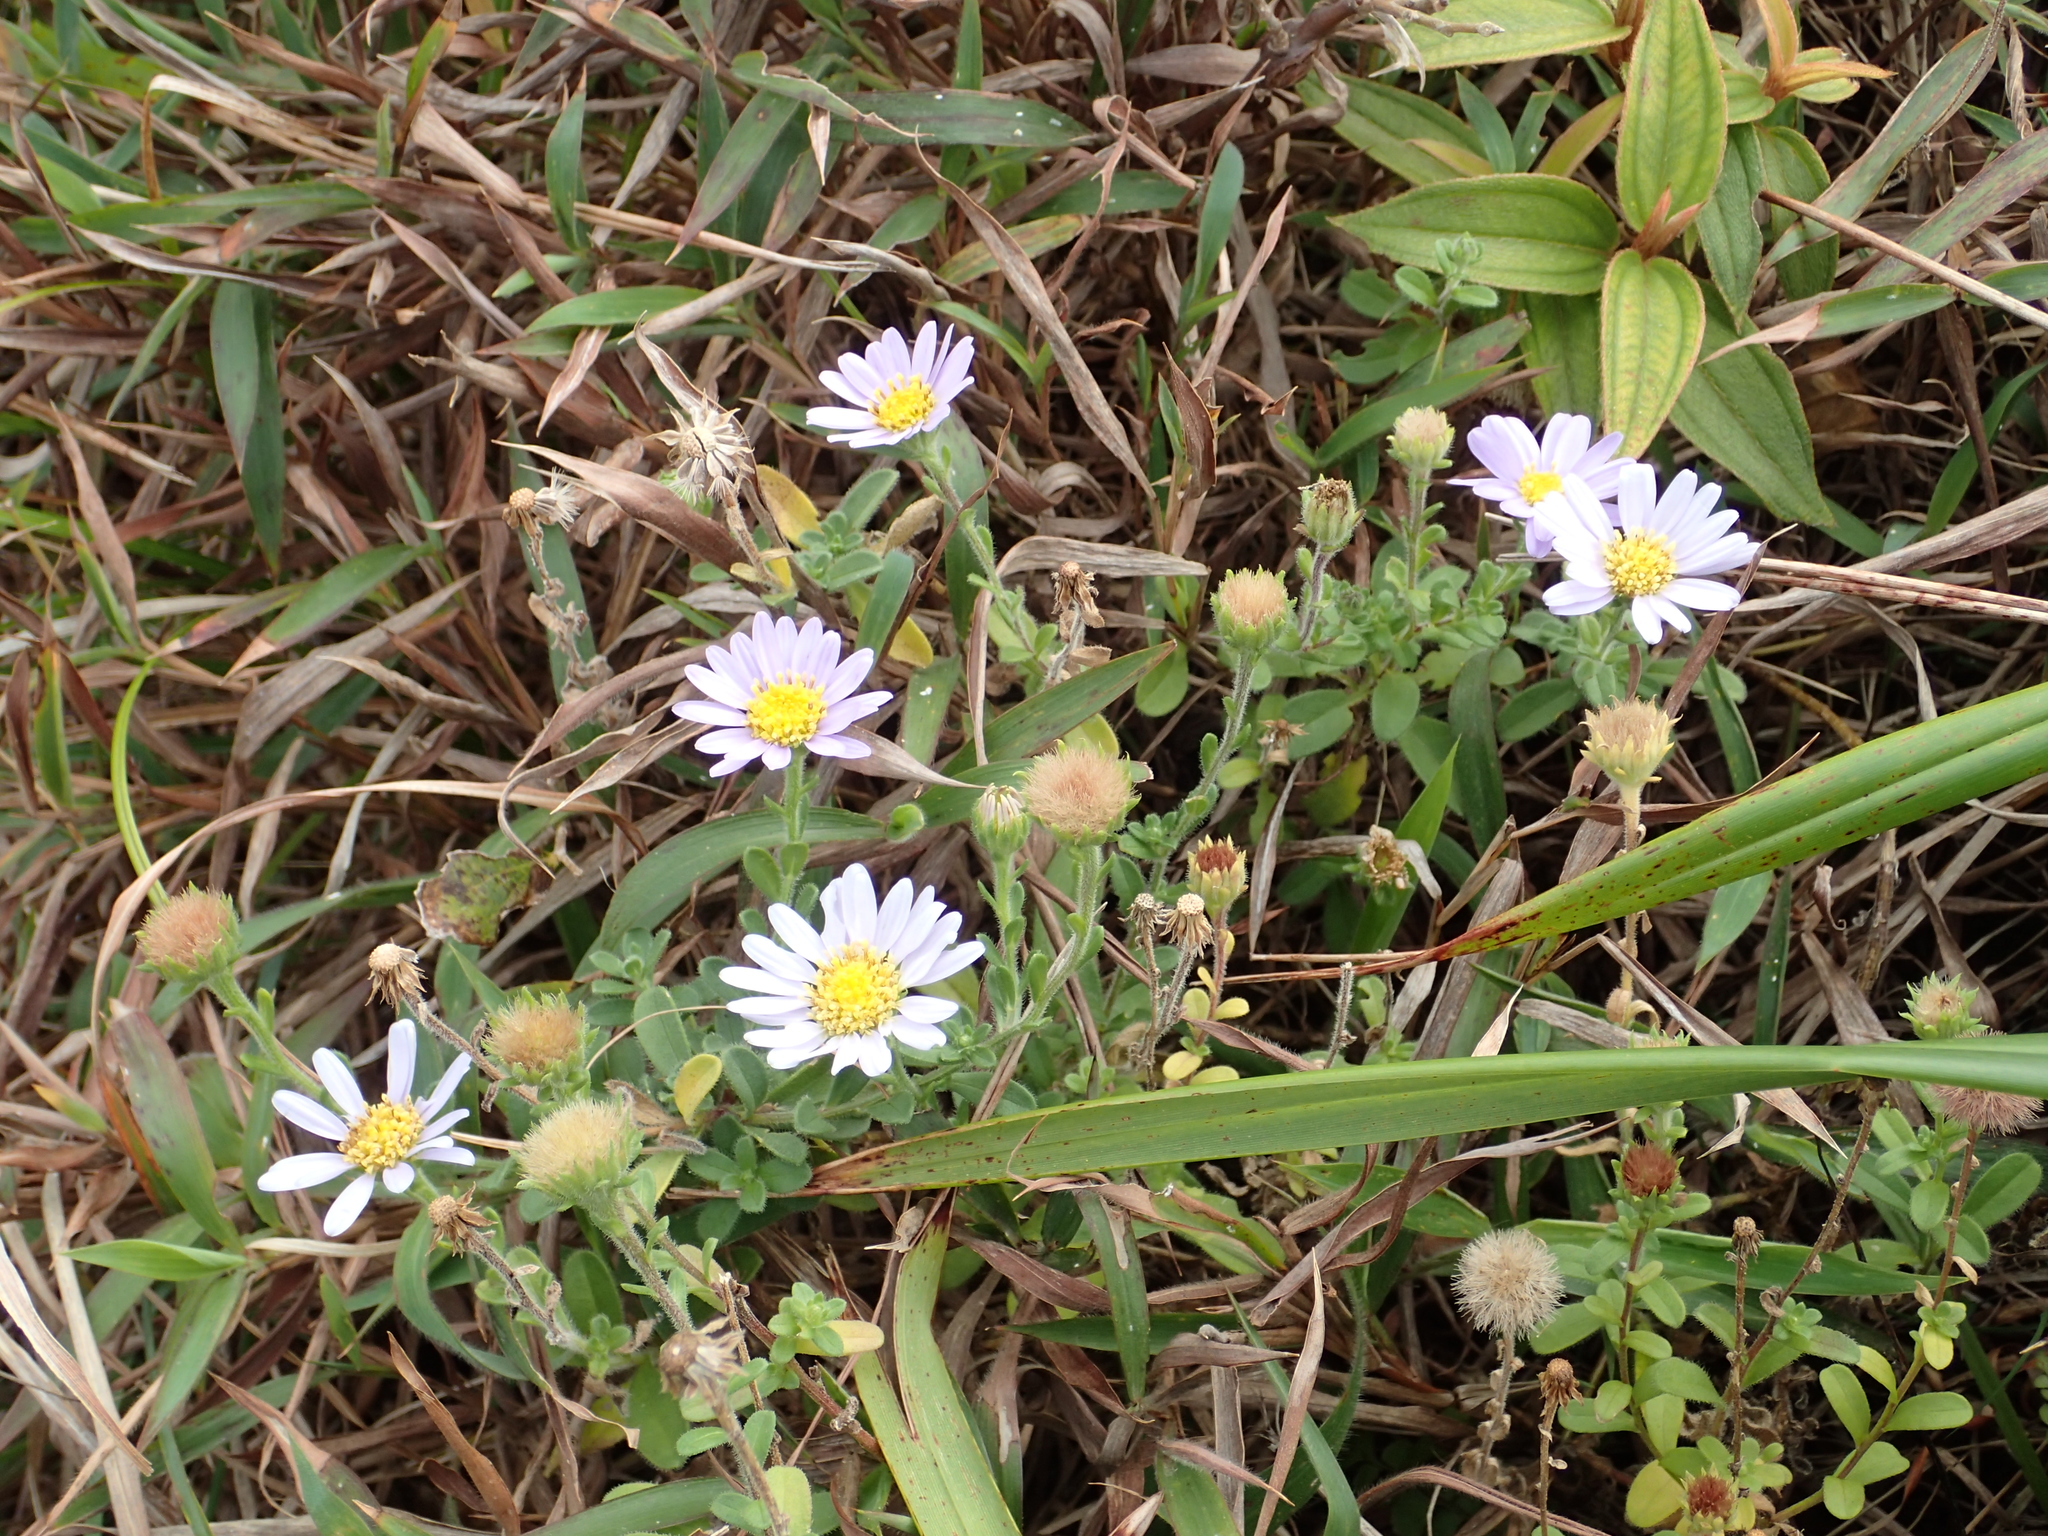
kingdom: Plantae
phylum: Tracheophyta
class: Magnoliopsida
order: Asterales
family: Asteraceae
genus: Heteropappus
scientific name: Heteropappus oldhamii
